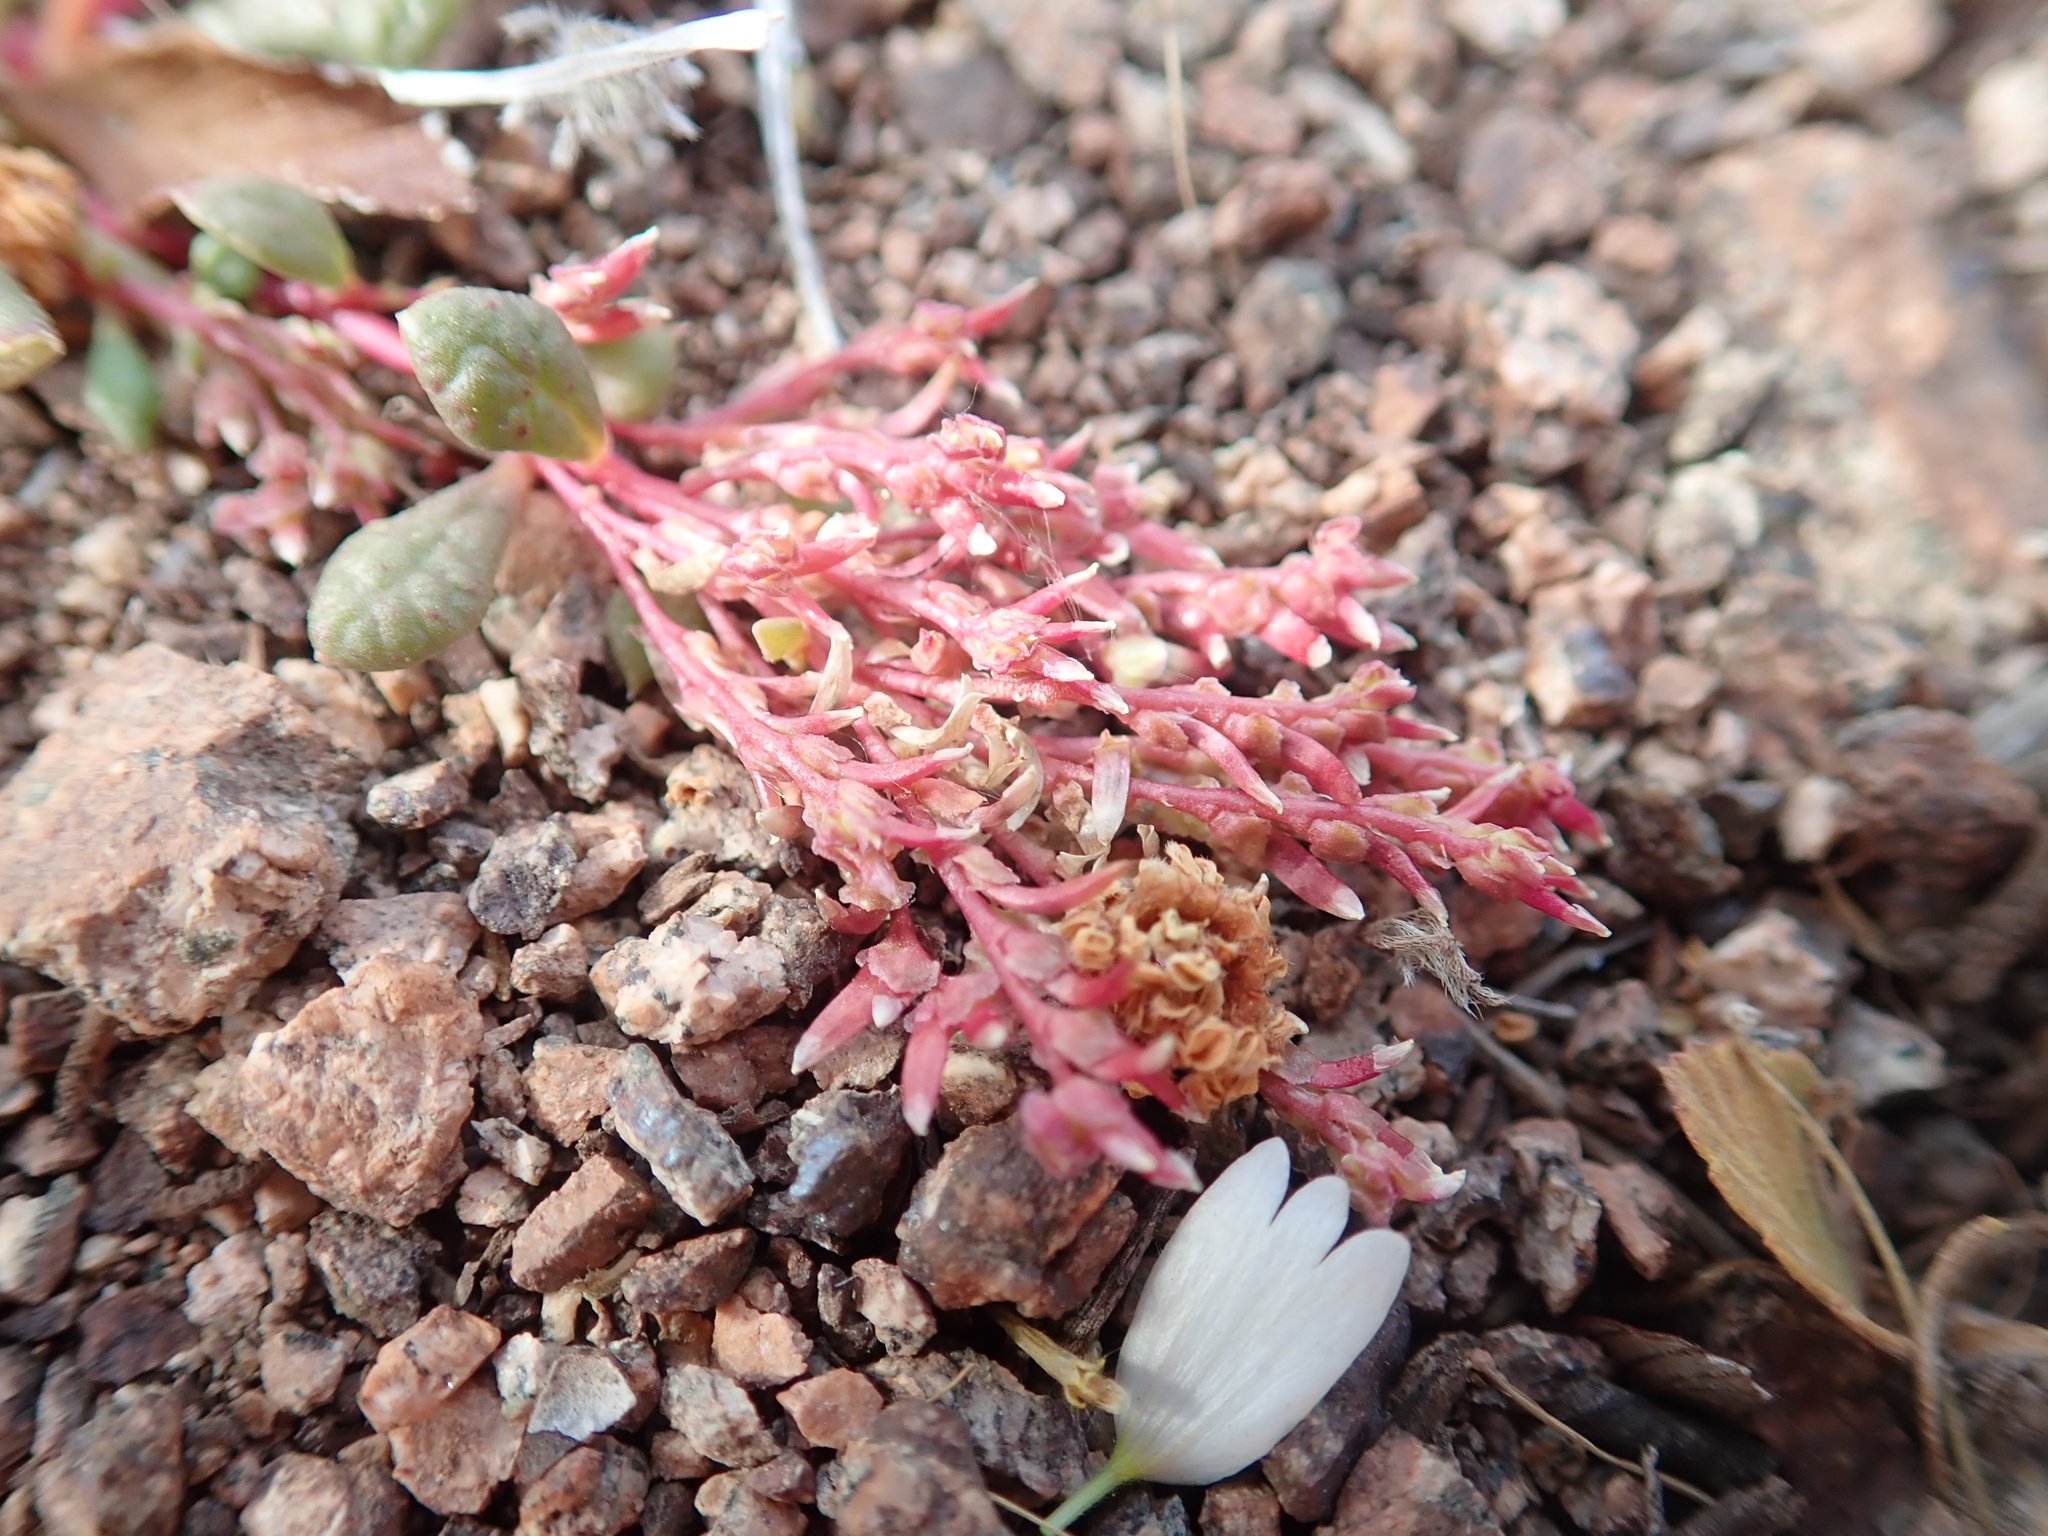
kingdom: Plantae
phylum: Tracheophyta
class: Magnoliopsida
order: Caryophyllales
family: Montiaceae
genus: Calyptridium
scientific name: Calyptridium monandrum
